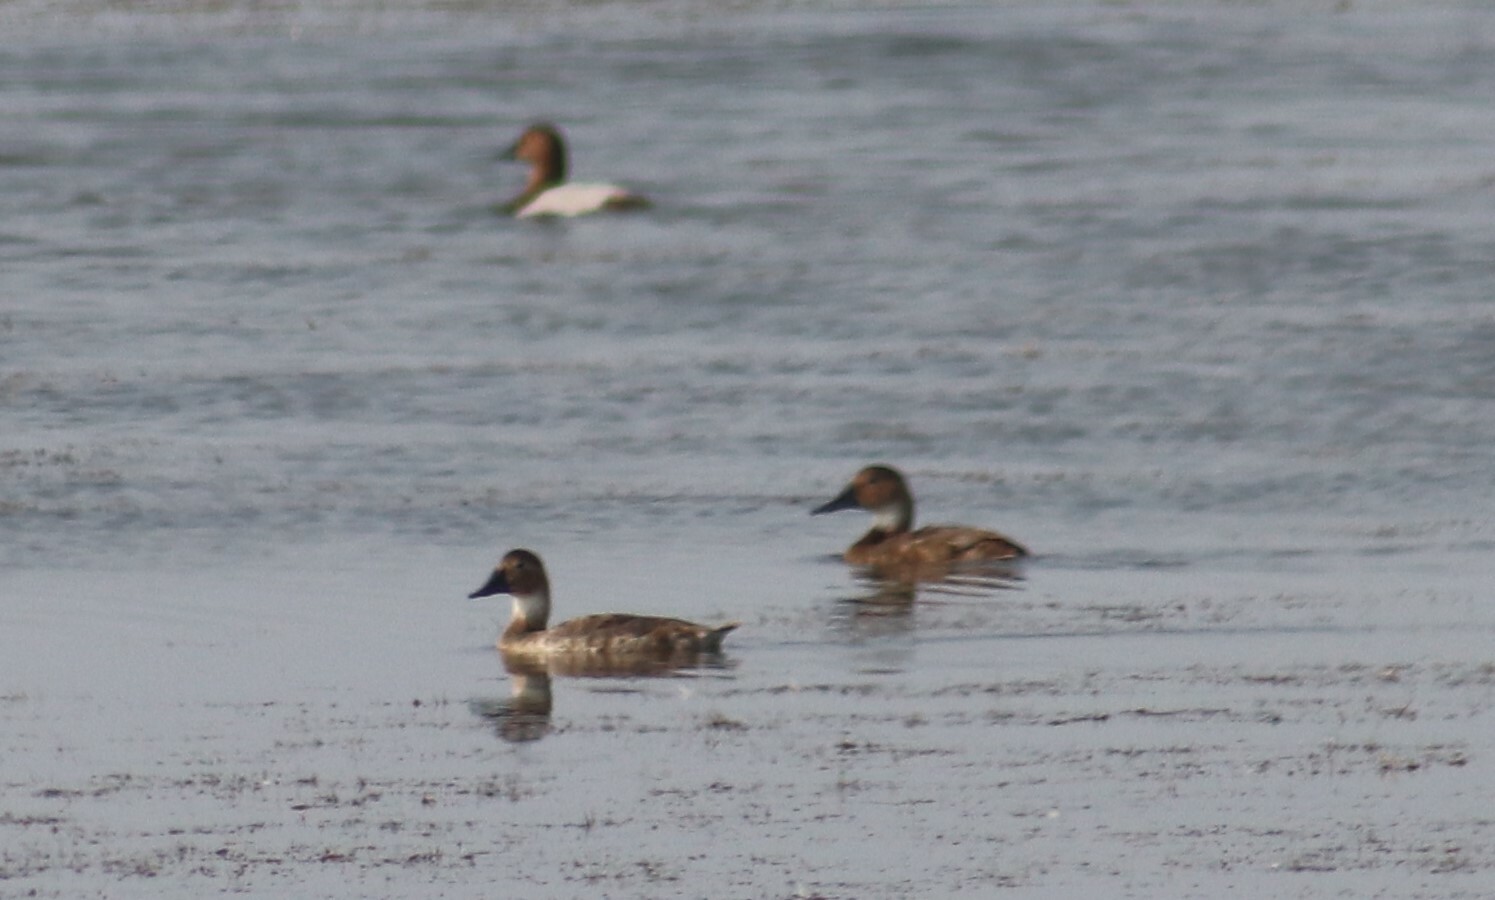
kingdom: Animalia
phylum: Chordata
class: Aves
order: Anseriformes
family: Anatidae
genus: Aythya
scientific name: Aythya valisineria
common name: Canvasback
